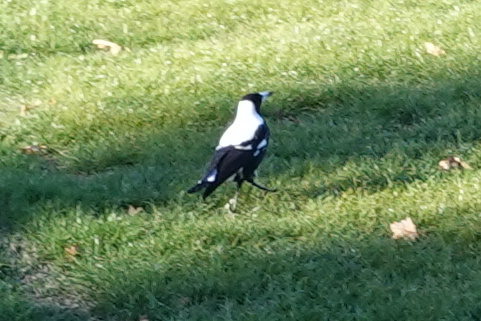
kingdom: Animalia
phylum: Chordata
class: Aves
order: Passeriformes
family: Cracticidae
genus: Gymnorhina
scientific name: Gymnorhina tibicen
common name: Australian magpie
